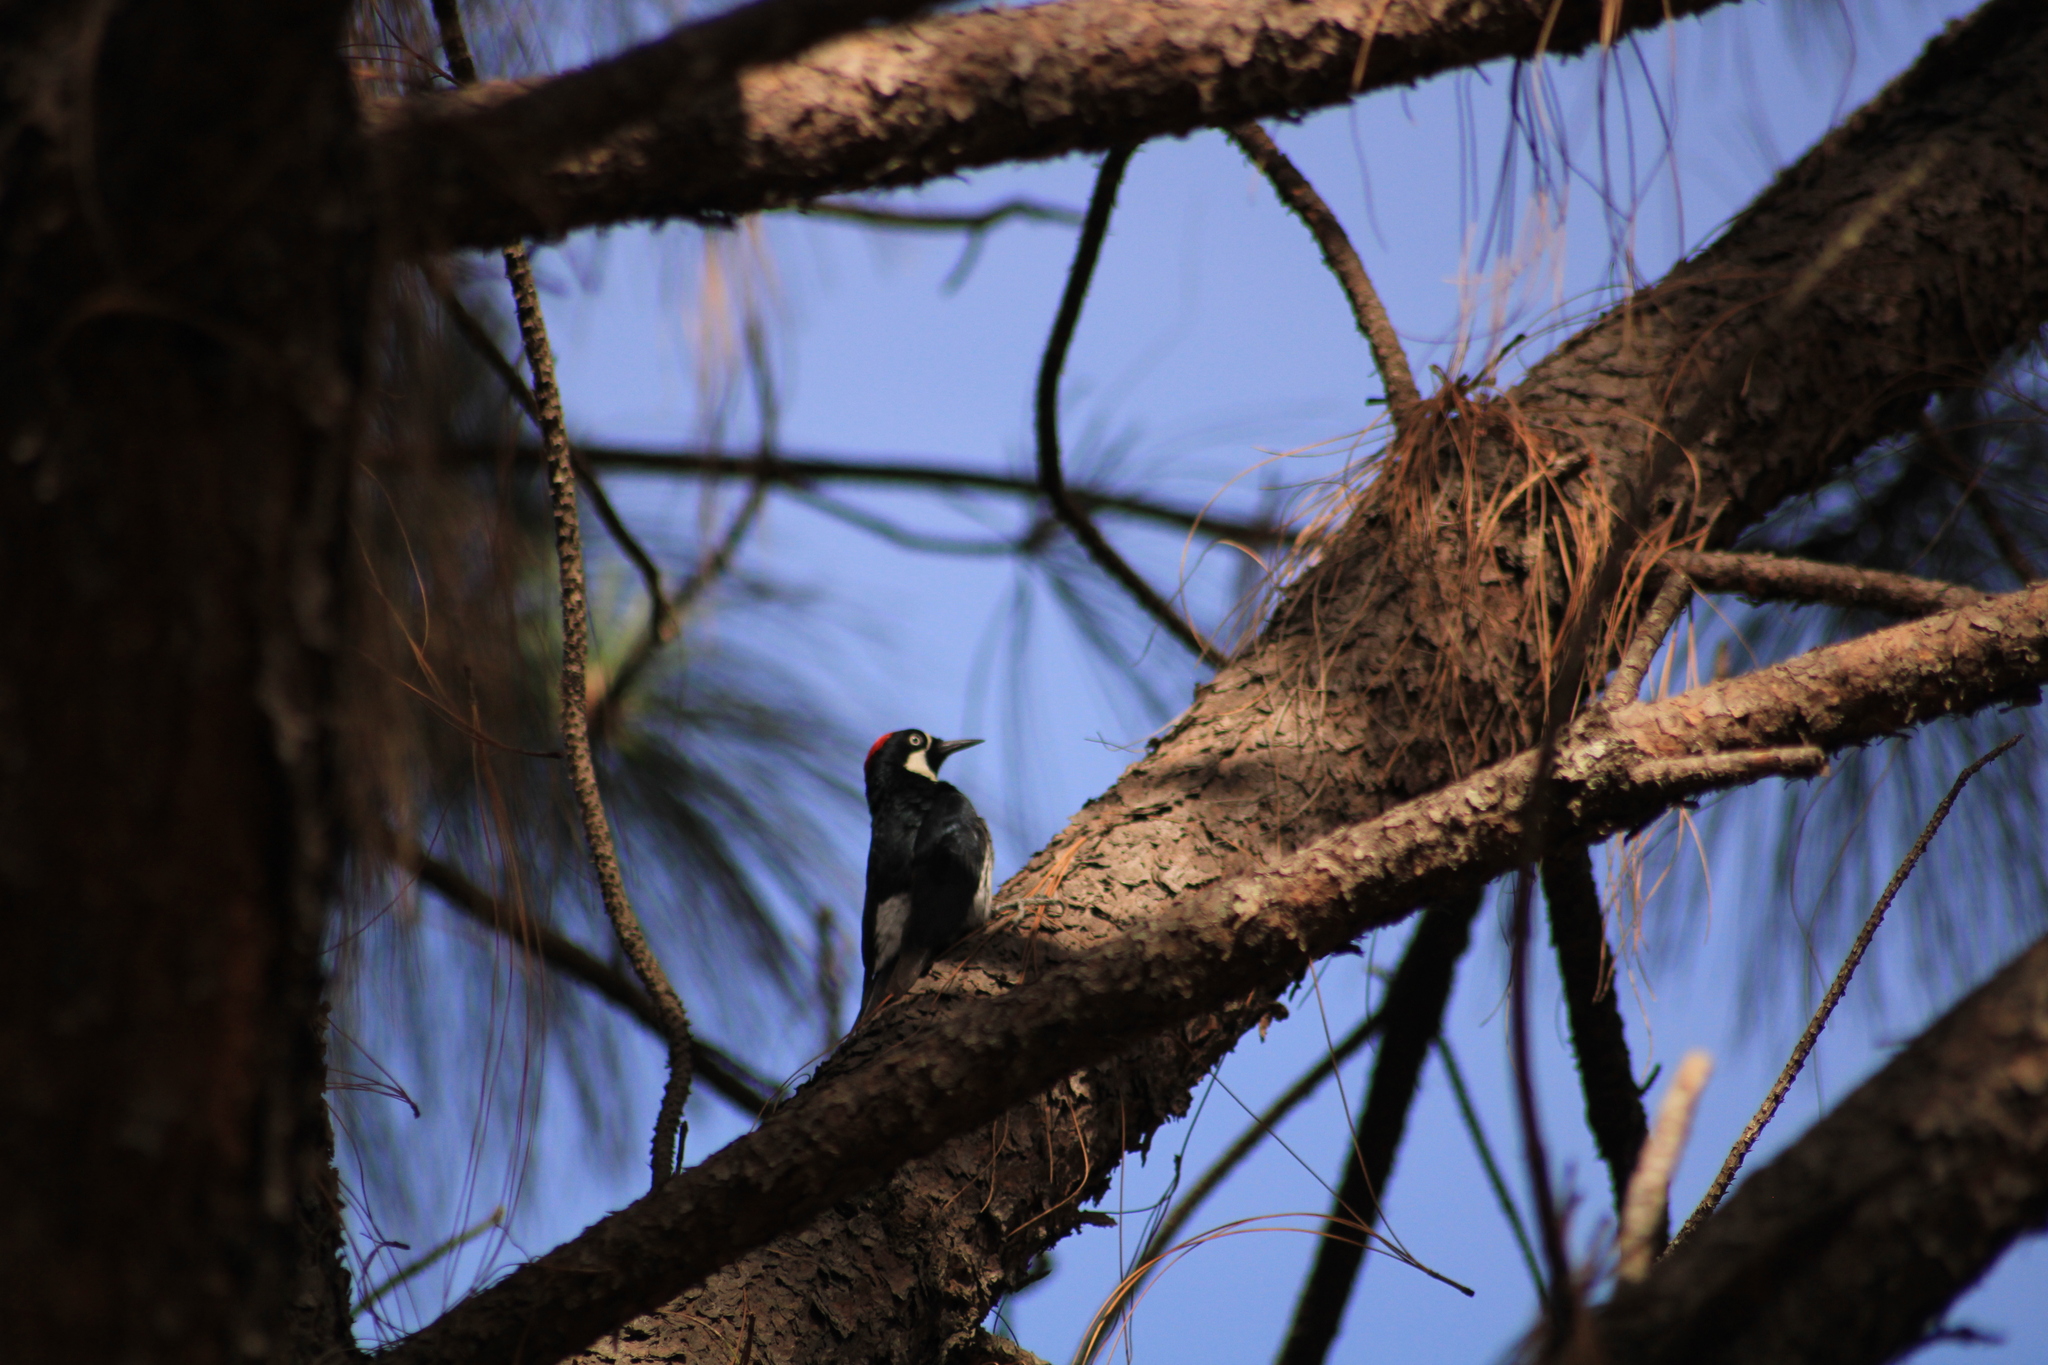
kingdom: Animalia
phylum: Chordata
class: Aves
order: Piciformes
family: Picidae
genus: Melanerpes
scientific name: Melanerpes formicivorus
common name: Acorn woodpecker
